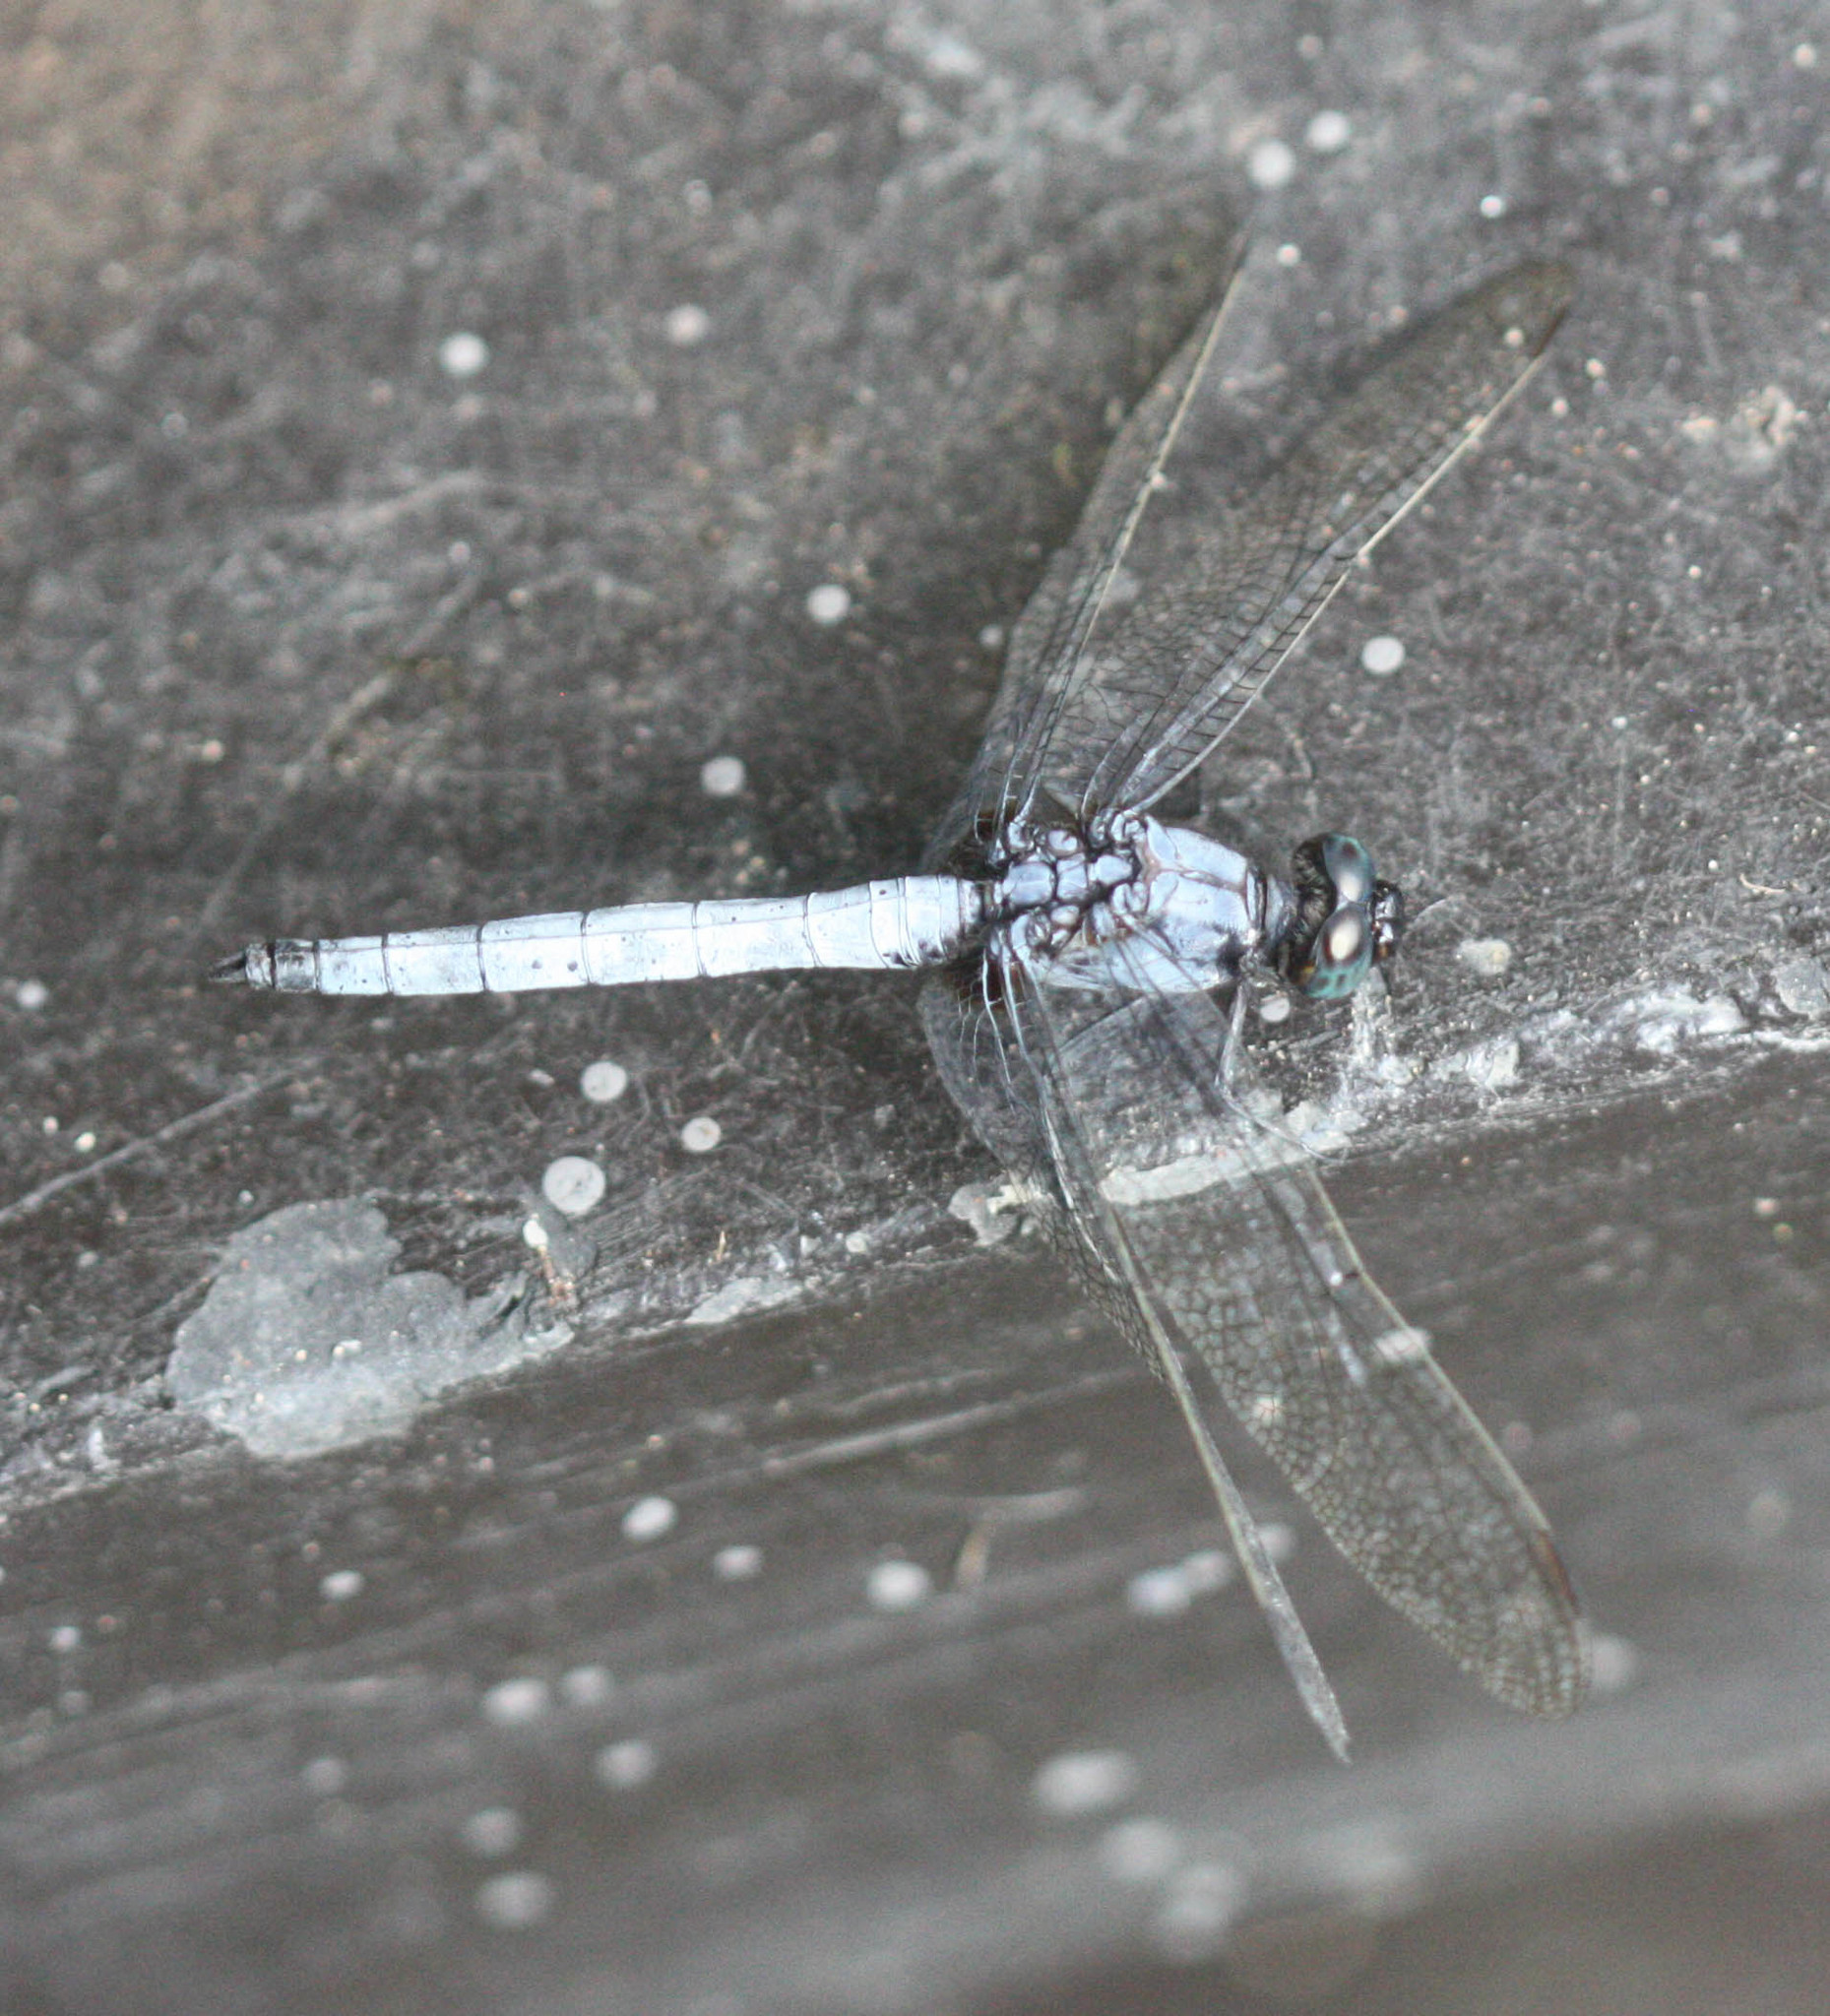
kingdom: Animalia
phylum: Arthropoda
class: Insecta
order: Odonata
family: Libellulidae
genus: Orthetrum
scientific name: Orthetrum glaucum
